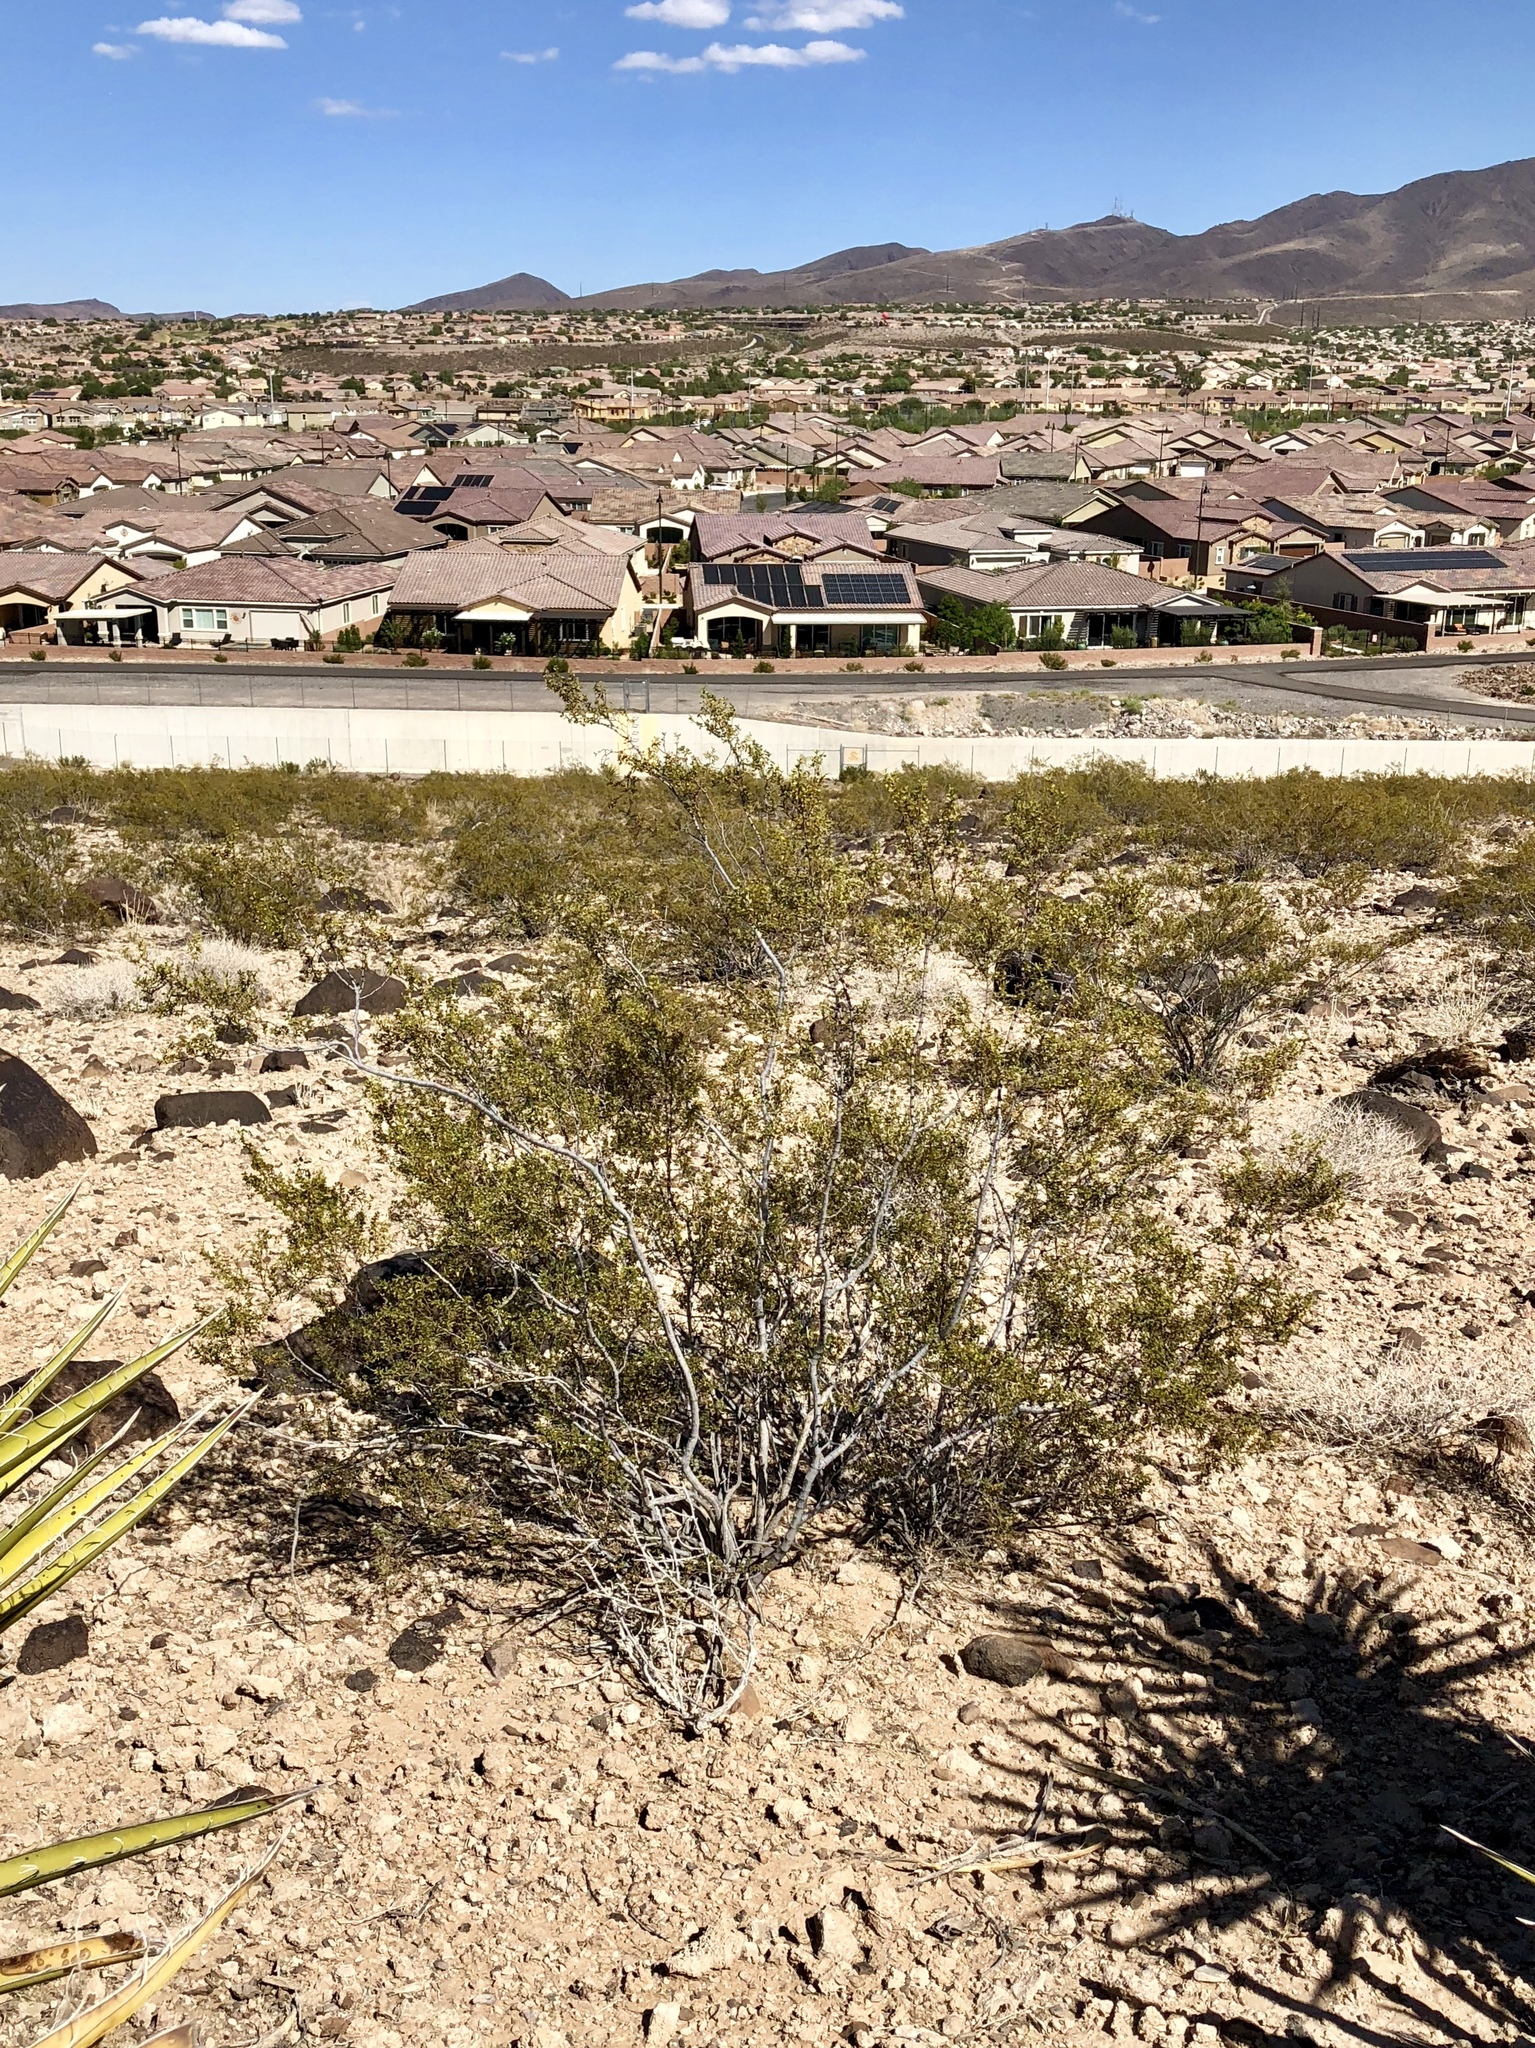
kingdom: Plantae
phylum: Tracheophyta
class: Magnoliopsida
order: Zygophyllales
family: Zygophyllaceae
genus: Larrea
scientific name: Larrea tridentata
